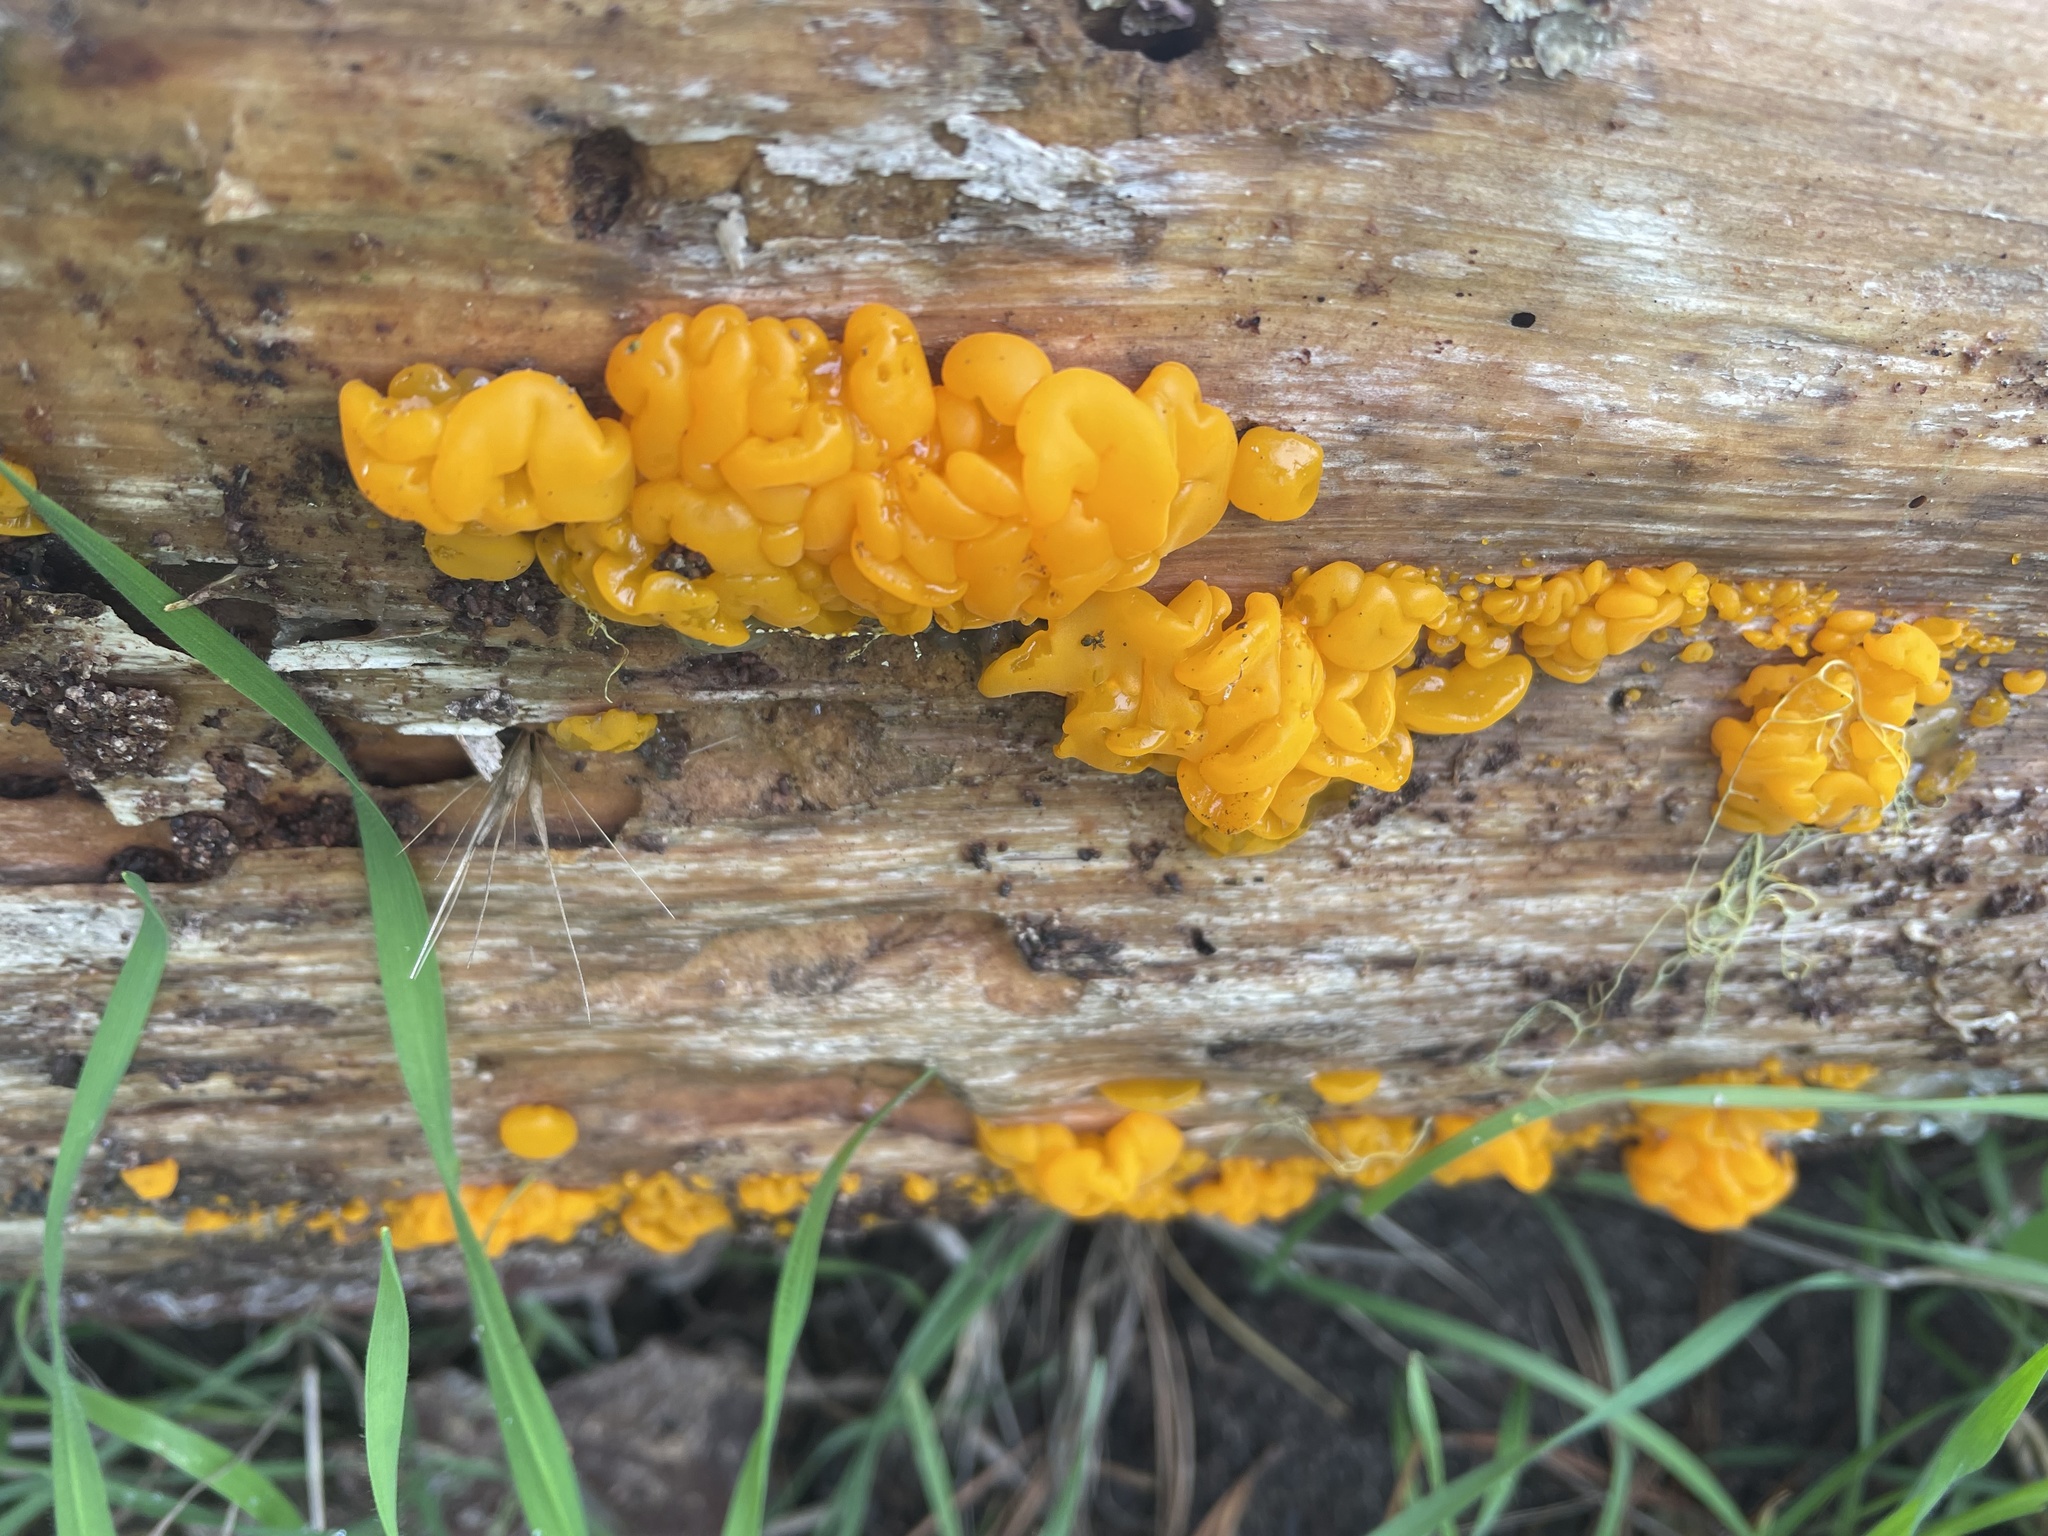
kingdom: Fungi
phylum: Basidiomycota
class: Tremellomycetes
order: Tremellales
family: Naemateliaceae
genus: Naematelia
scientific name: Naematelia aurantia
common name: Golden ear
